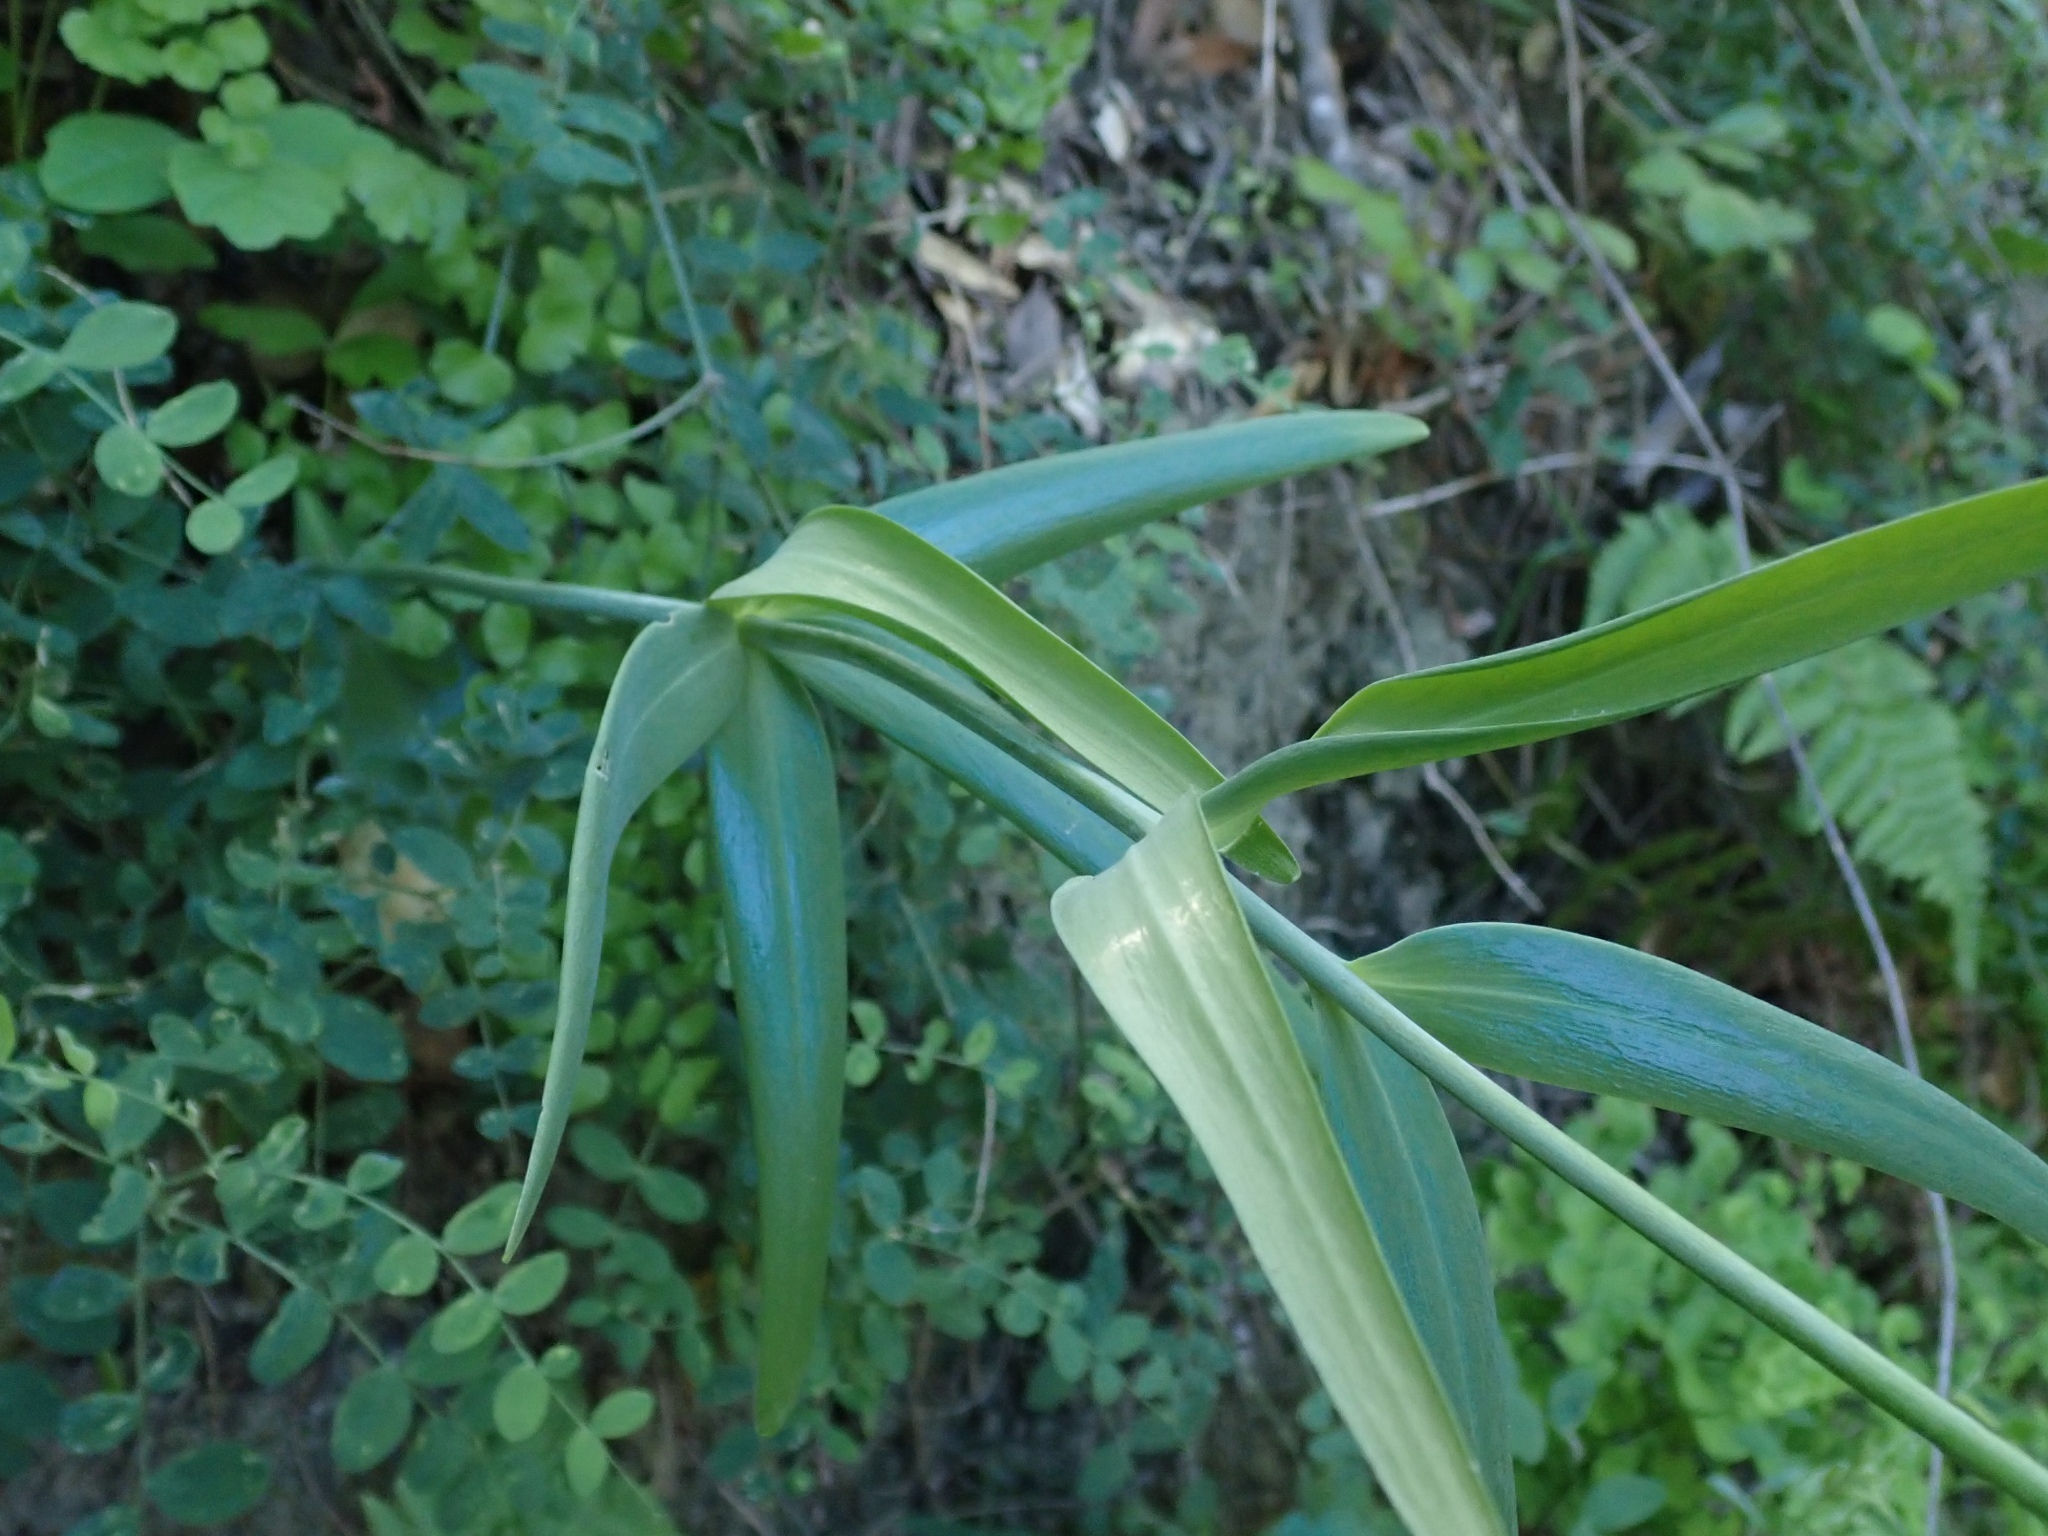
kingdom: Plantae
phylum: Tracheophyta
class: Liliopsida
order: Liliales
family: Liliaceae
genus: Fritillaria
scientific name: Fritillaria affinis
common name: Ojai fritillary
